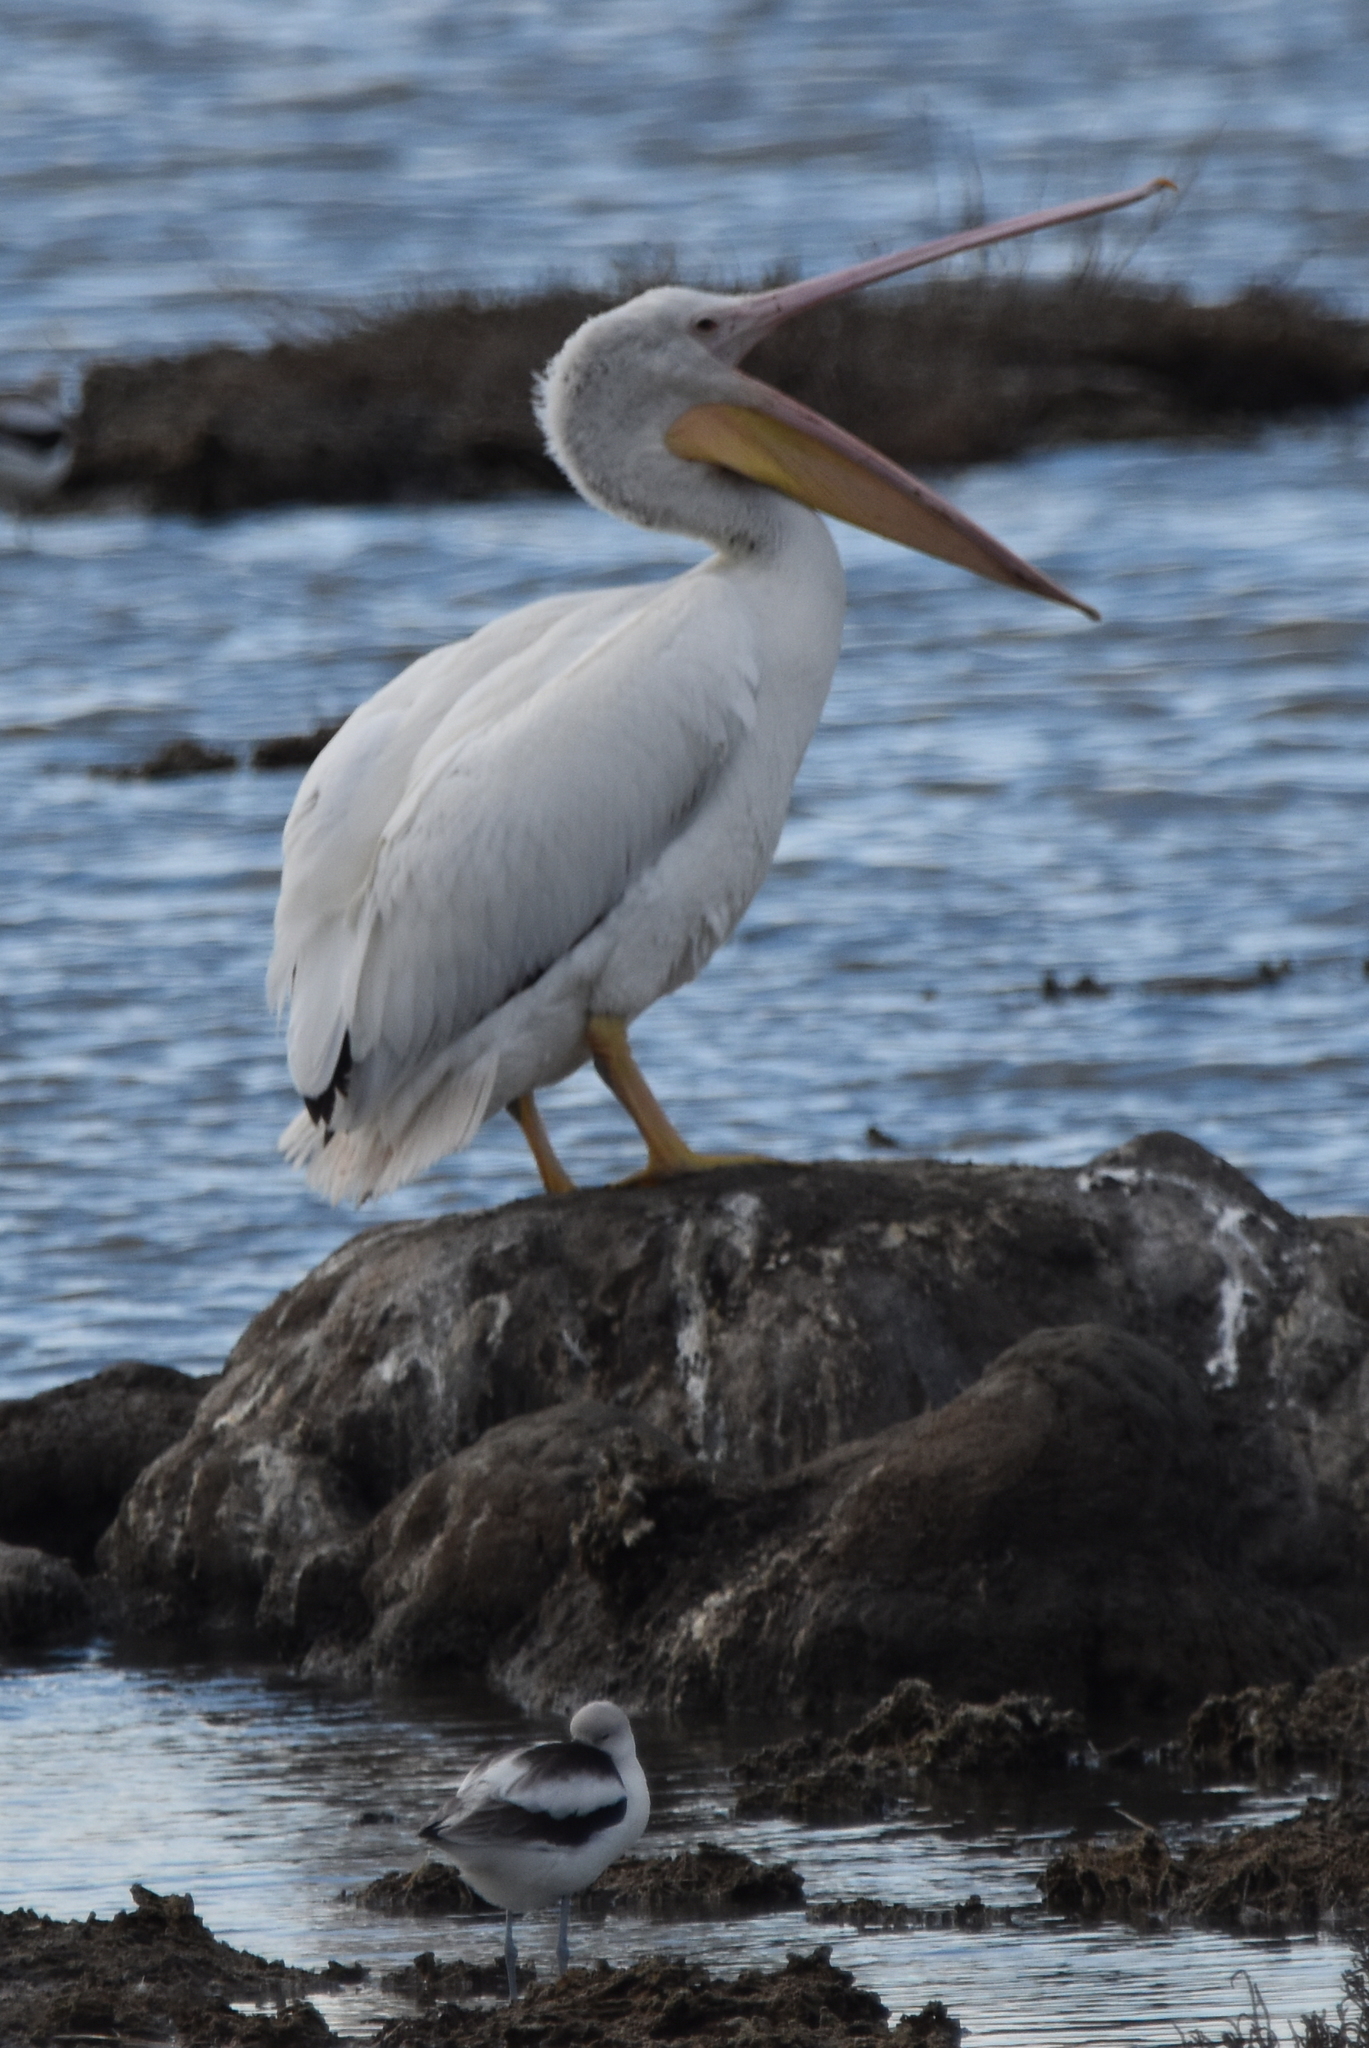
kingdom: Animalia
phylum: Chordata
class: Aves
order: Pelecaniformes
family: Pelecanidae
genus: Pelecanus
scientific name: Pelecanus erythrorhynchos
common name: American white pelican
